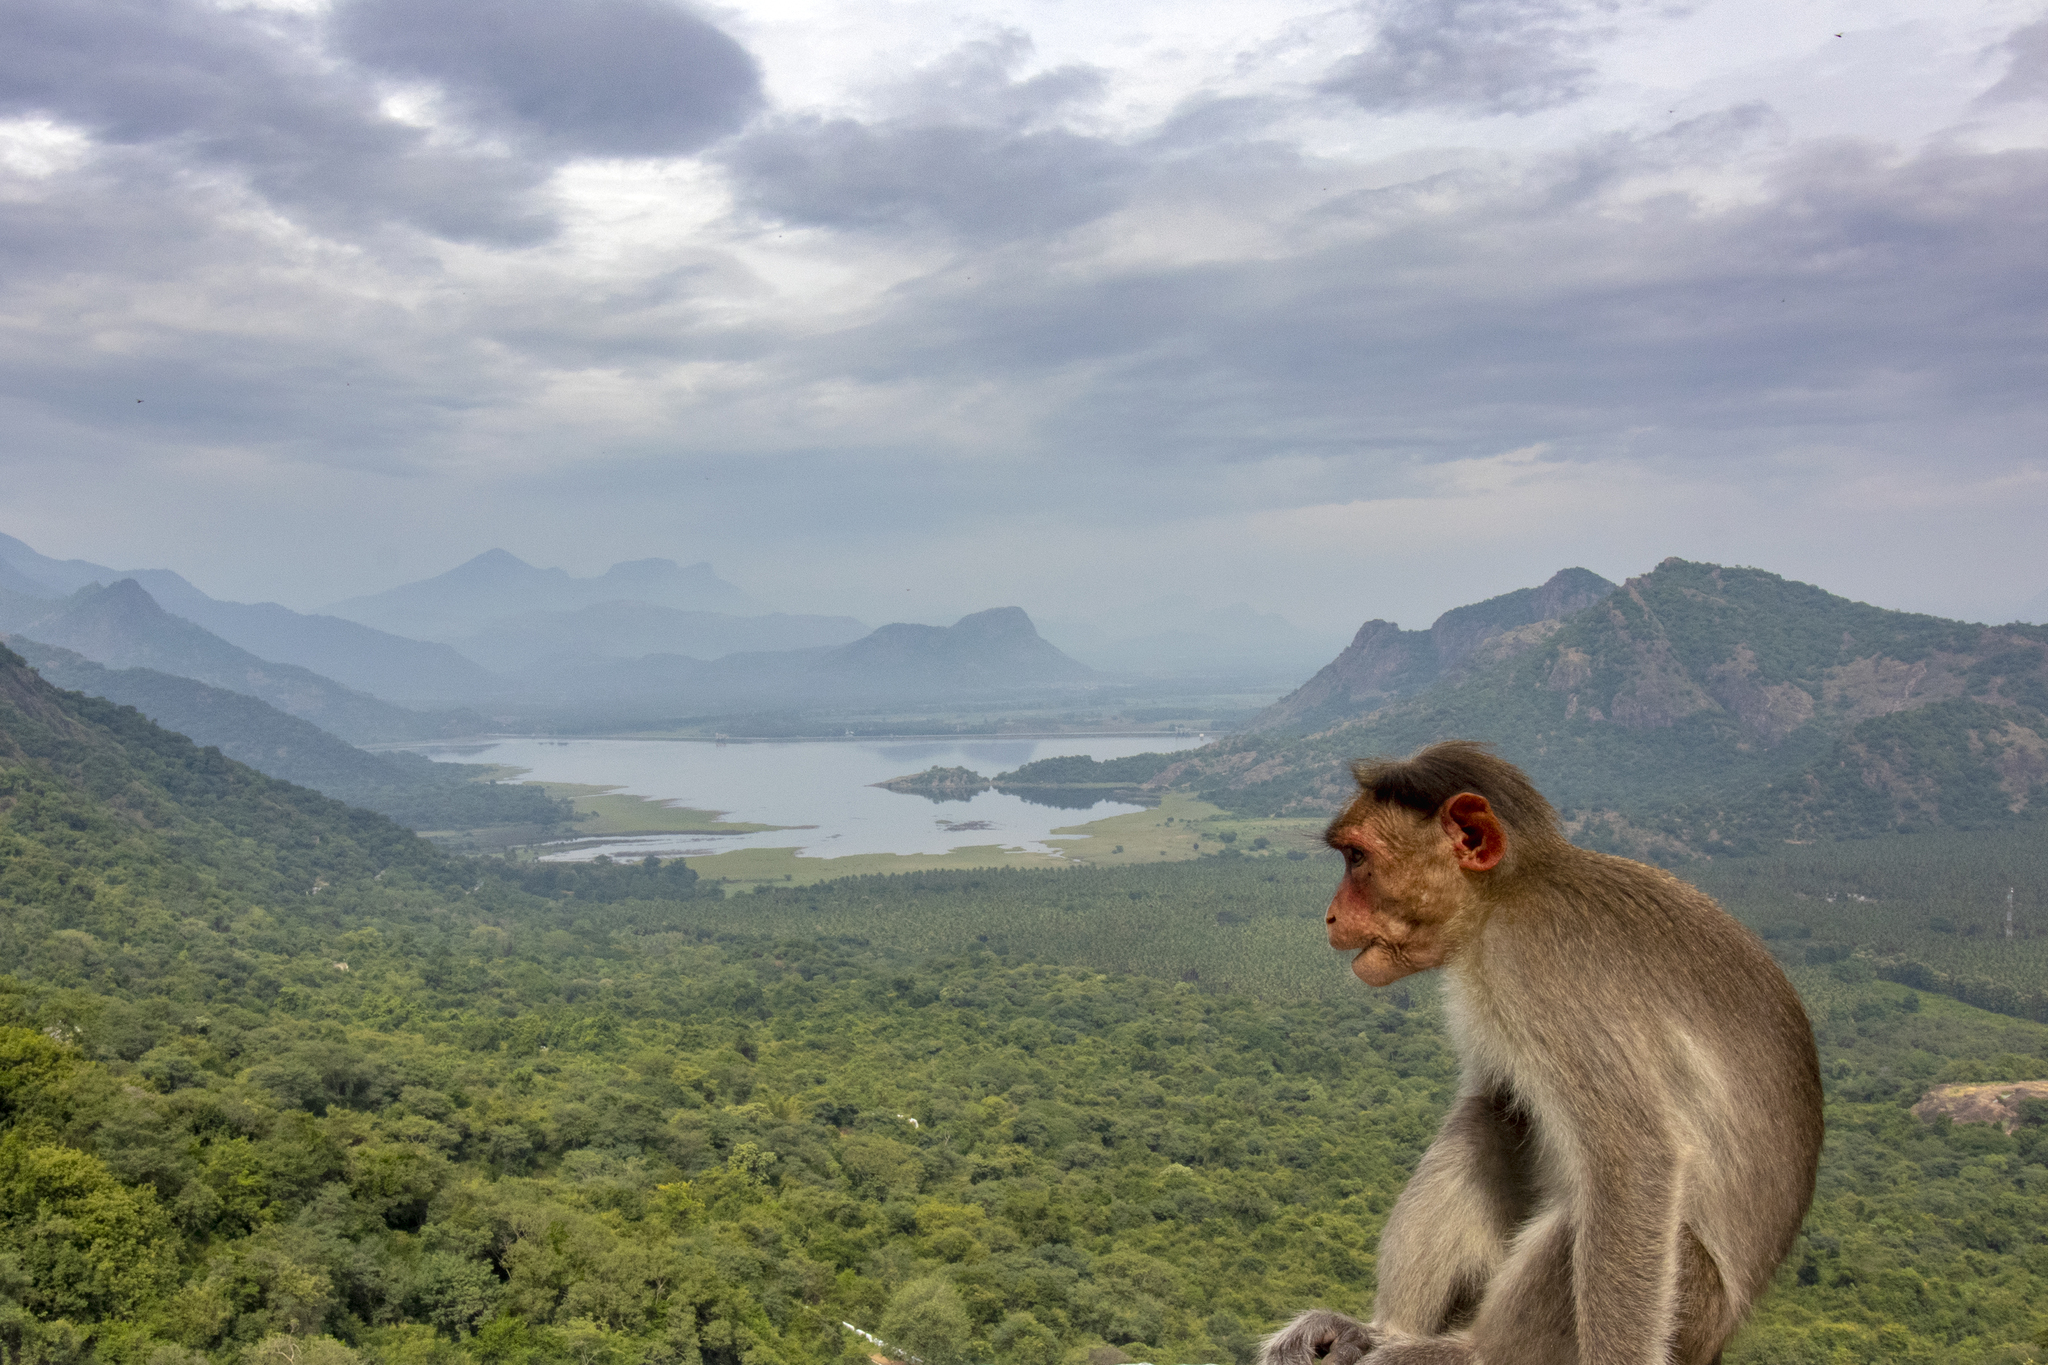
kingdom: Animalia
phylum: Chordata
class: Mammalia
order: Primates
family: Cercopithecidae
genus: Macaca
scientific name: Macaca radiata
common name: Bonnet macaque
